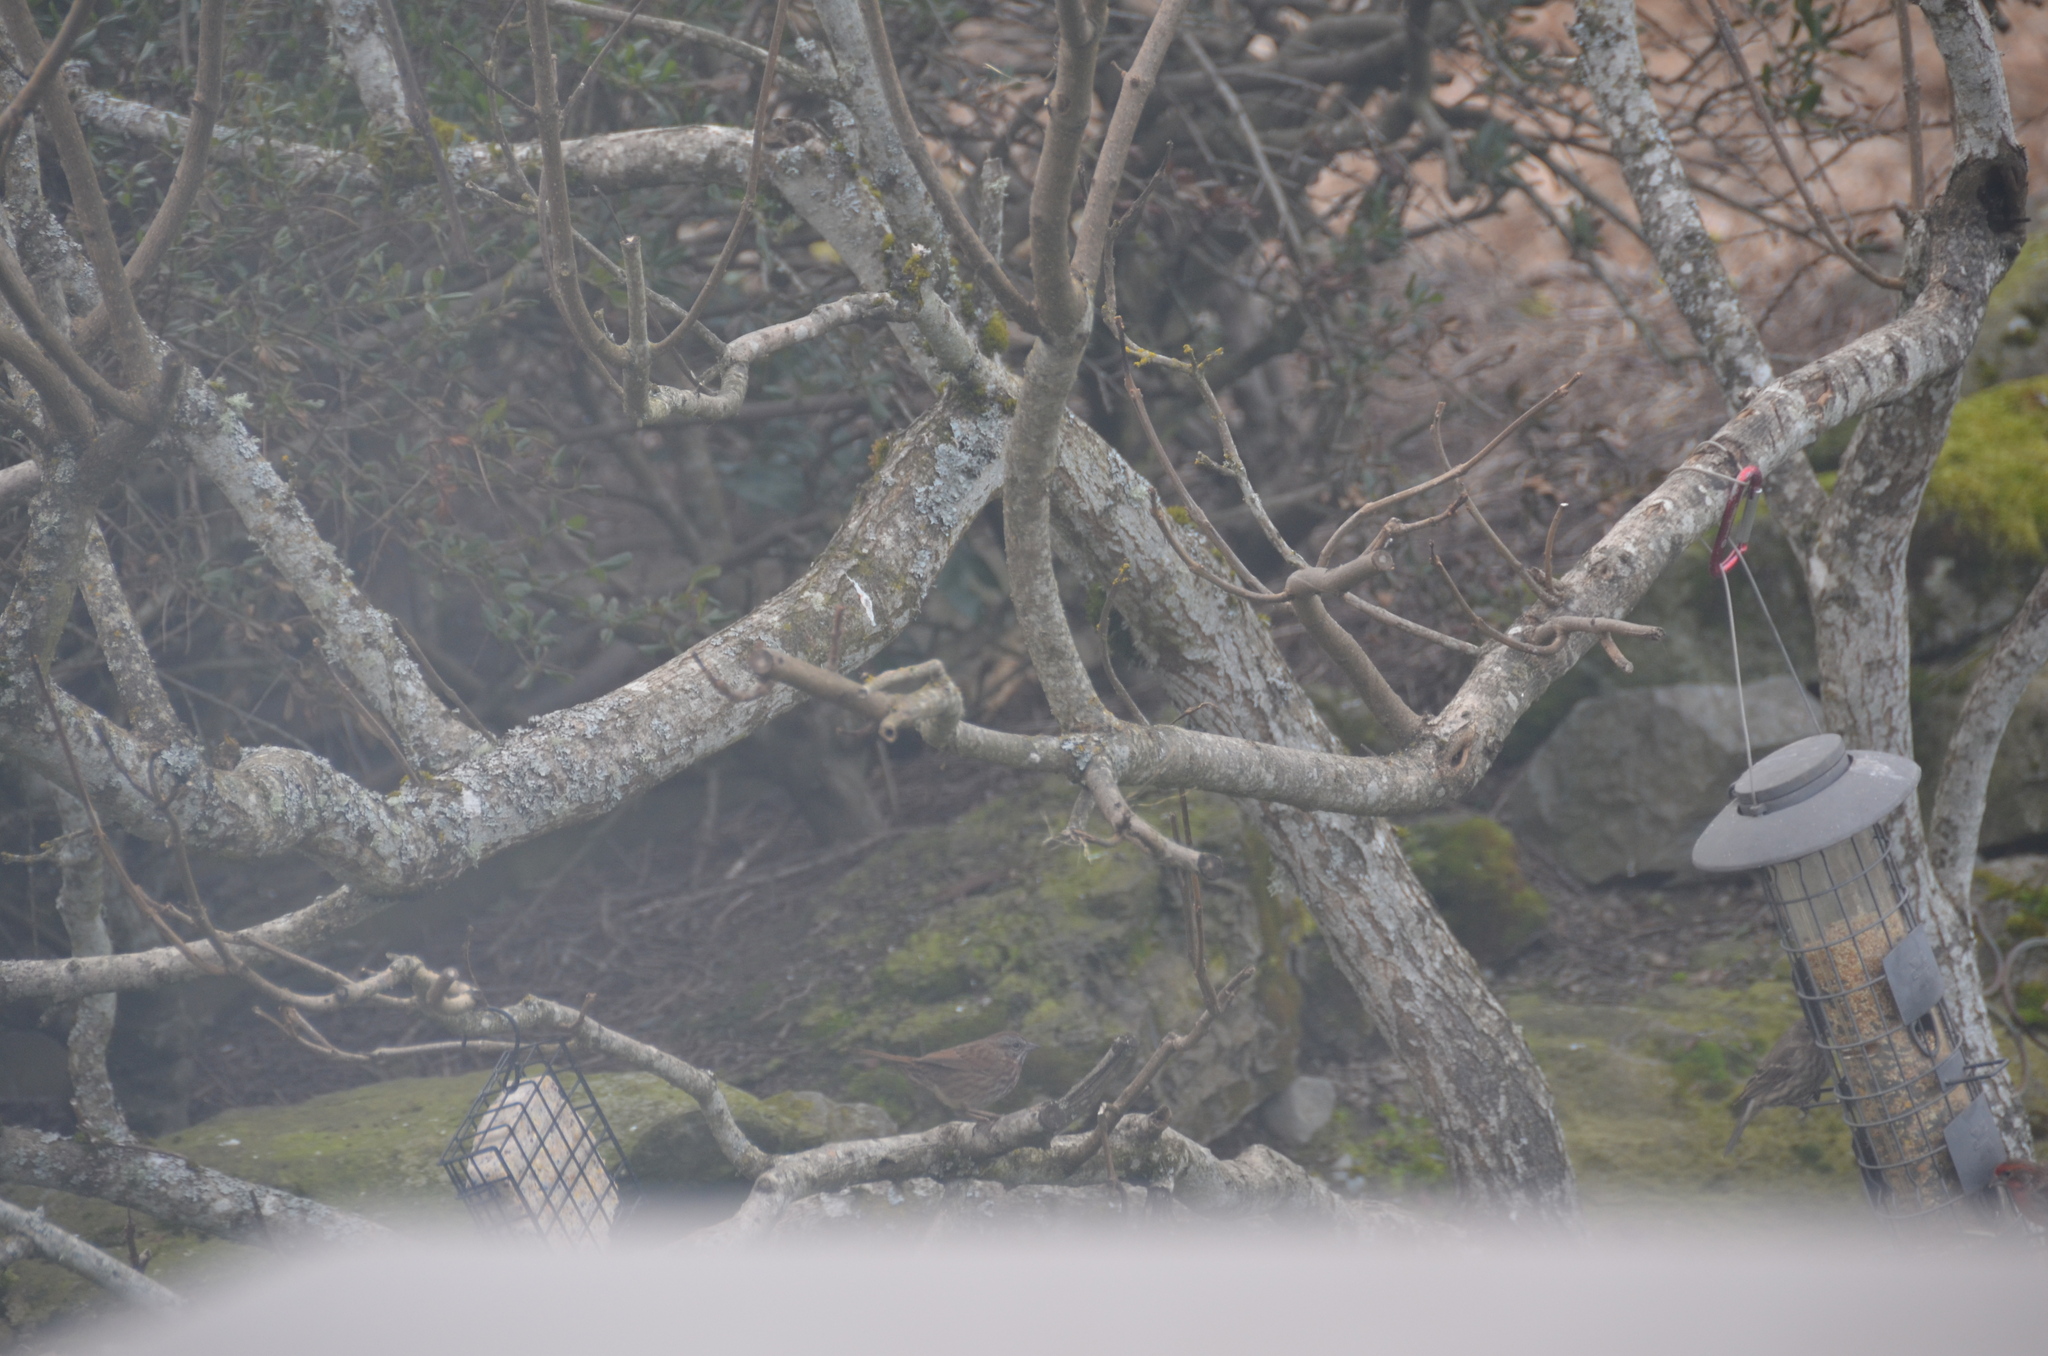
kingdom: Animalia
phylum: Chordata
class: Aves
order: Passeriformes
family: Passerellidae
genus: Melospiza
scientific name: Melospiza melodia
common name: Song sparrow
